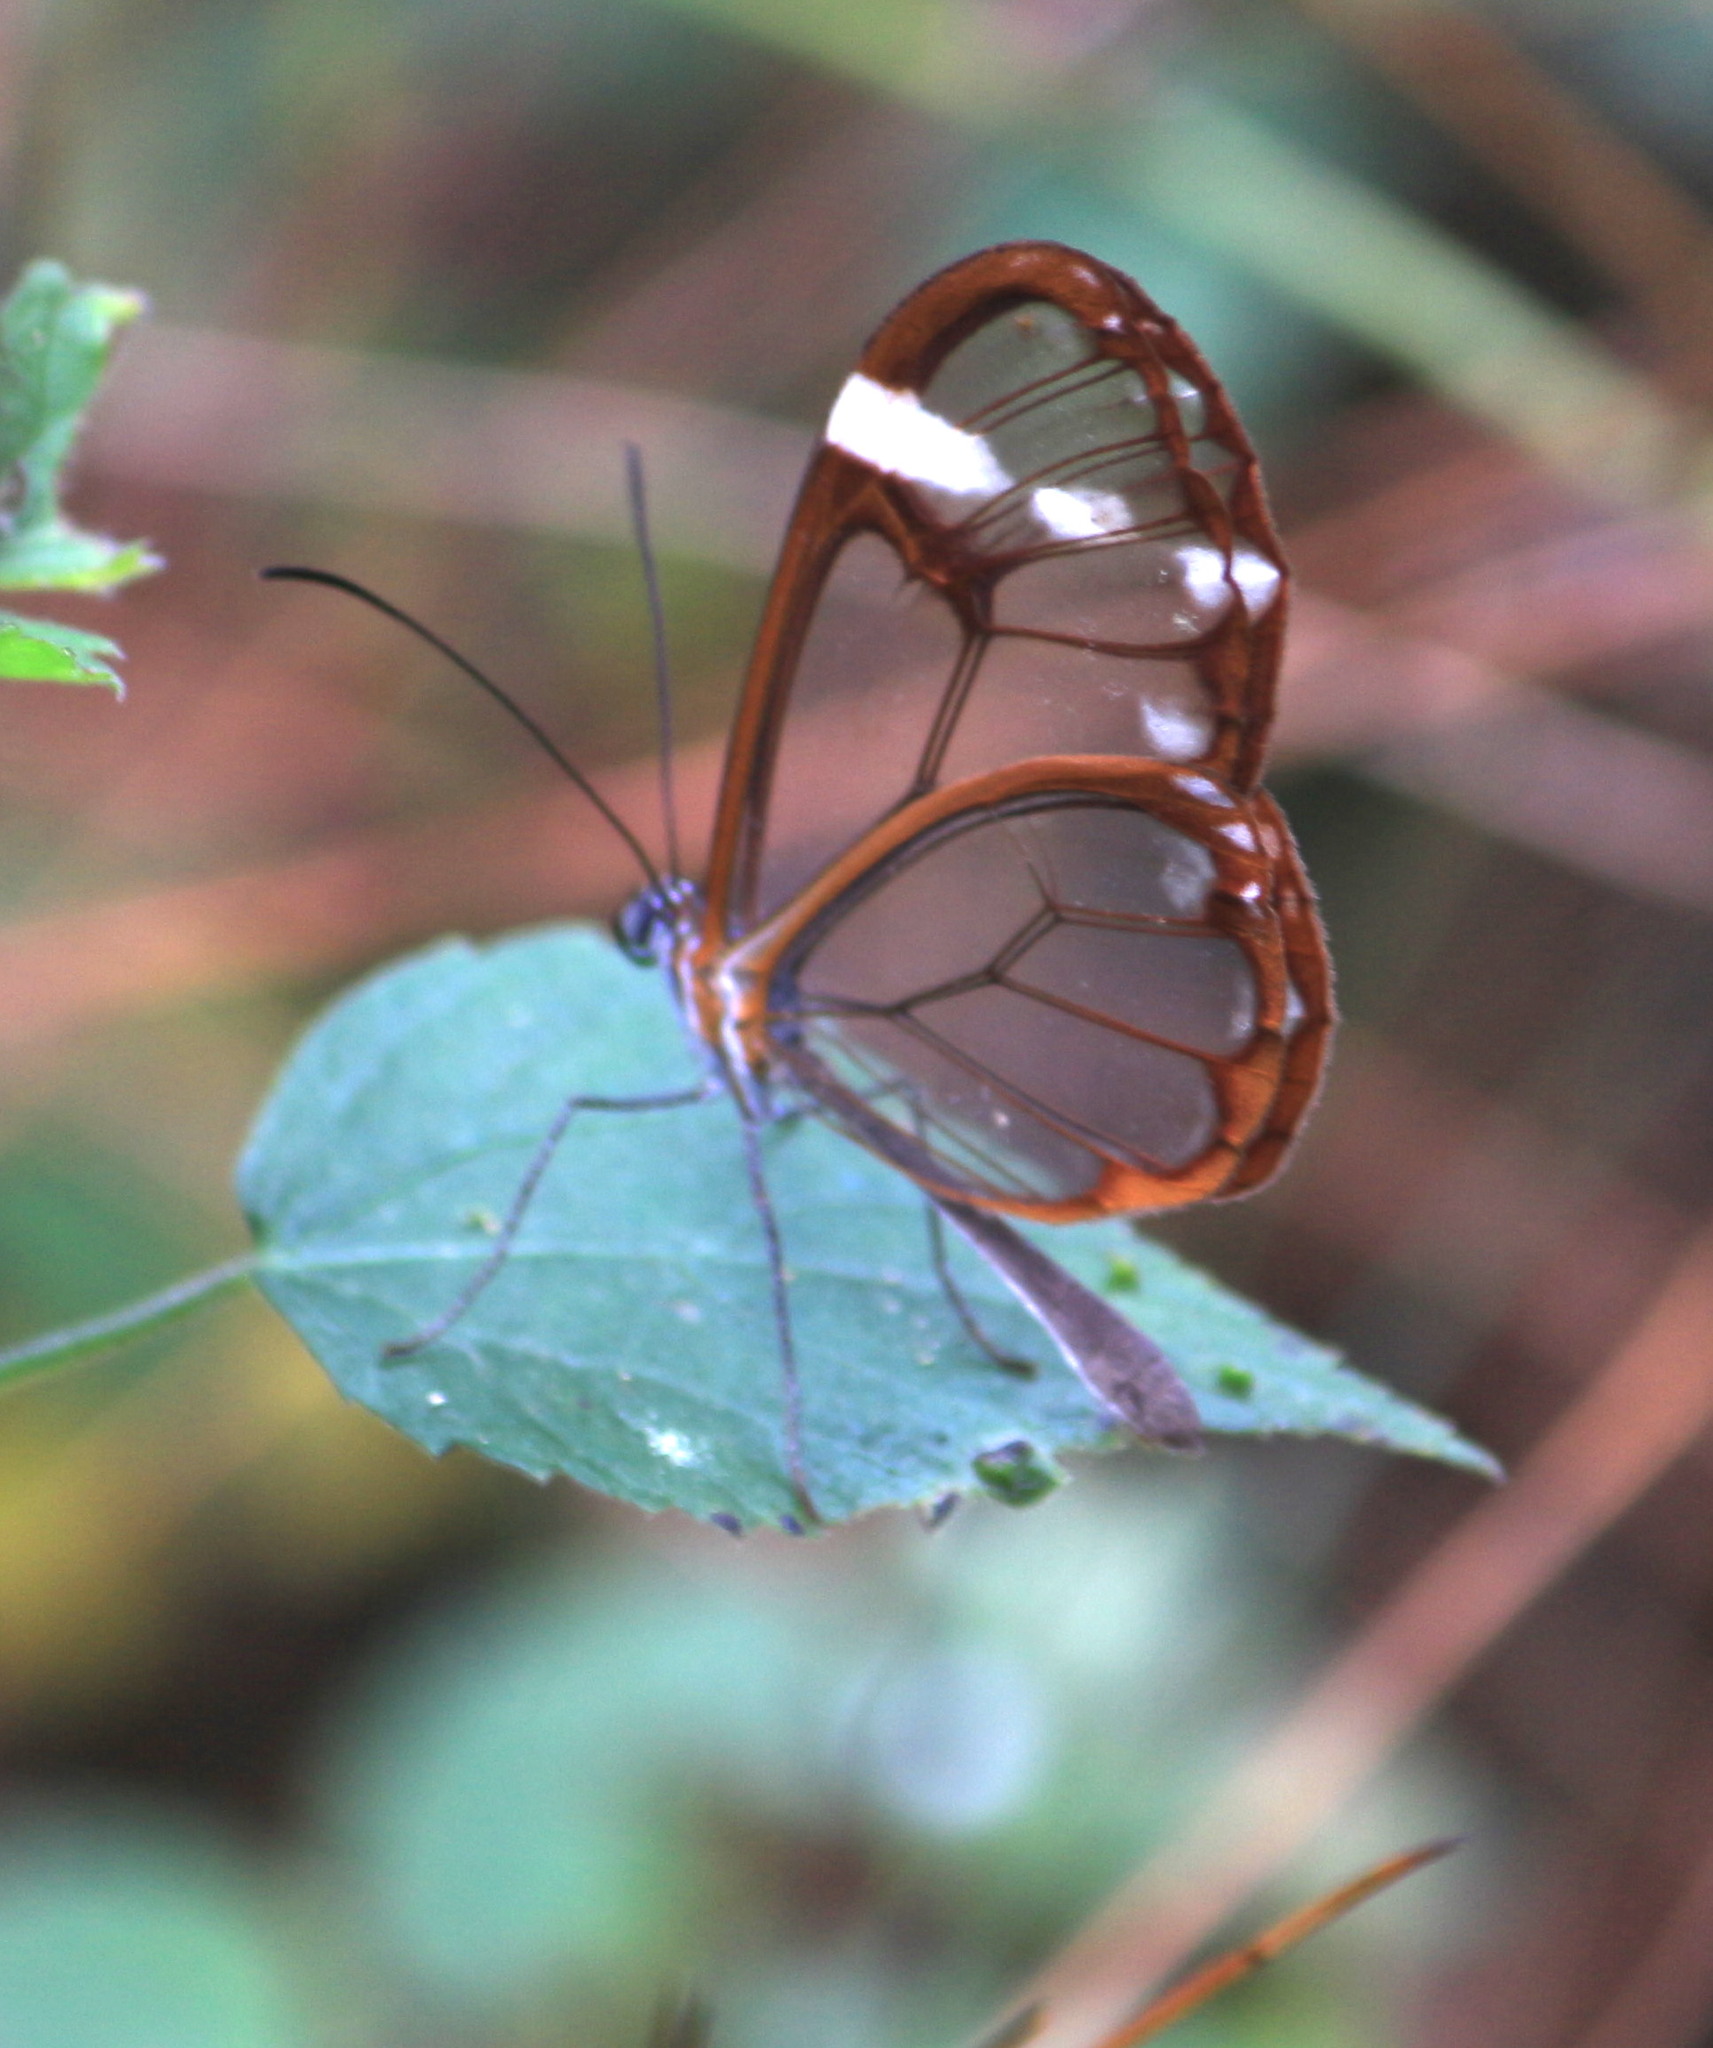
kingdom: Animalia
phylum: Arthropoda
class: Insecta
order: Lepidoptera
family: Nymphalidae
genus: Greta
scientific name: Greta annette
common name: White-spotted clearwing
